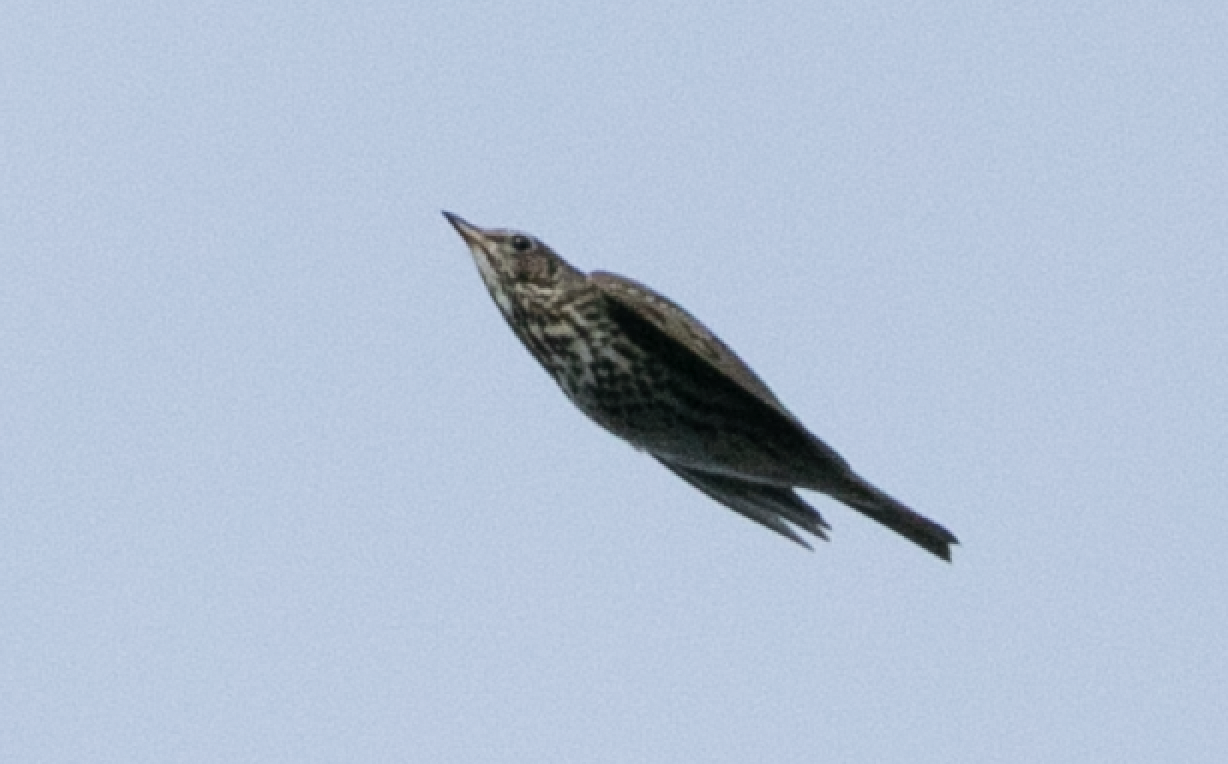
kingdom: Animalia
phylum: Chordata
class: Aves
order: Passeriformes
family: Turdidae
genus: Turdus
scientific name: Turdus philomelos
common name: Song thrush
